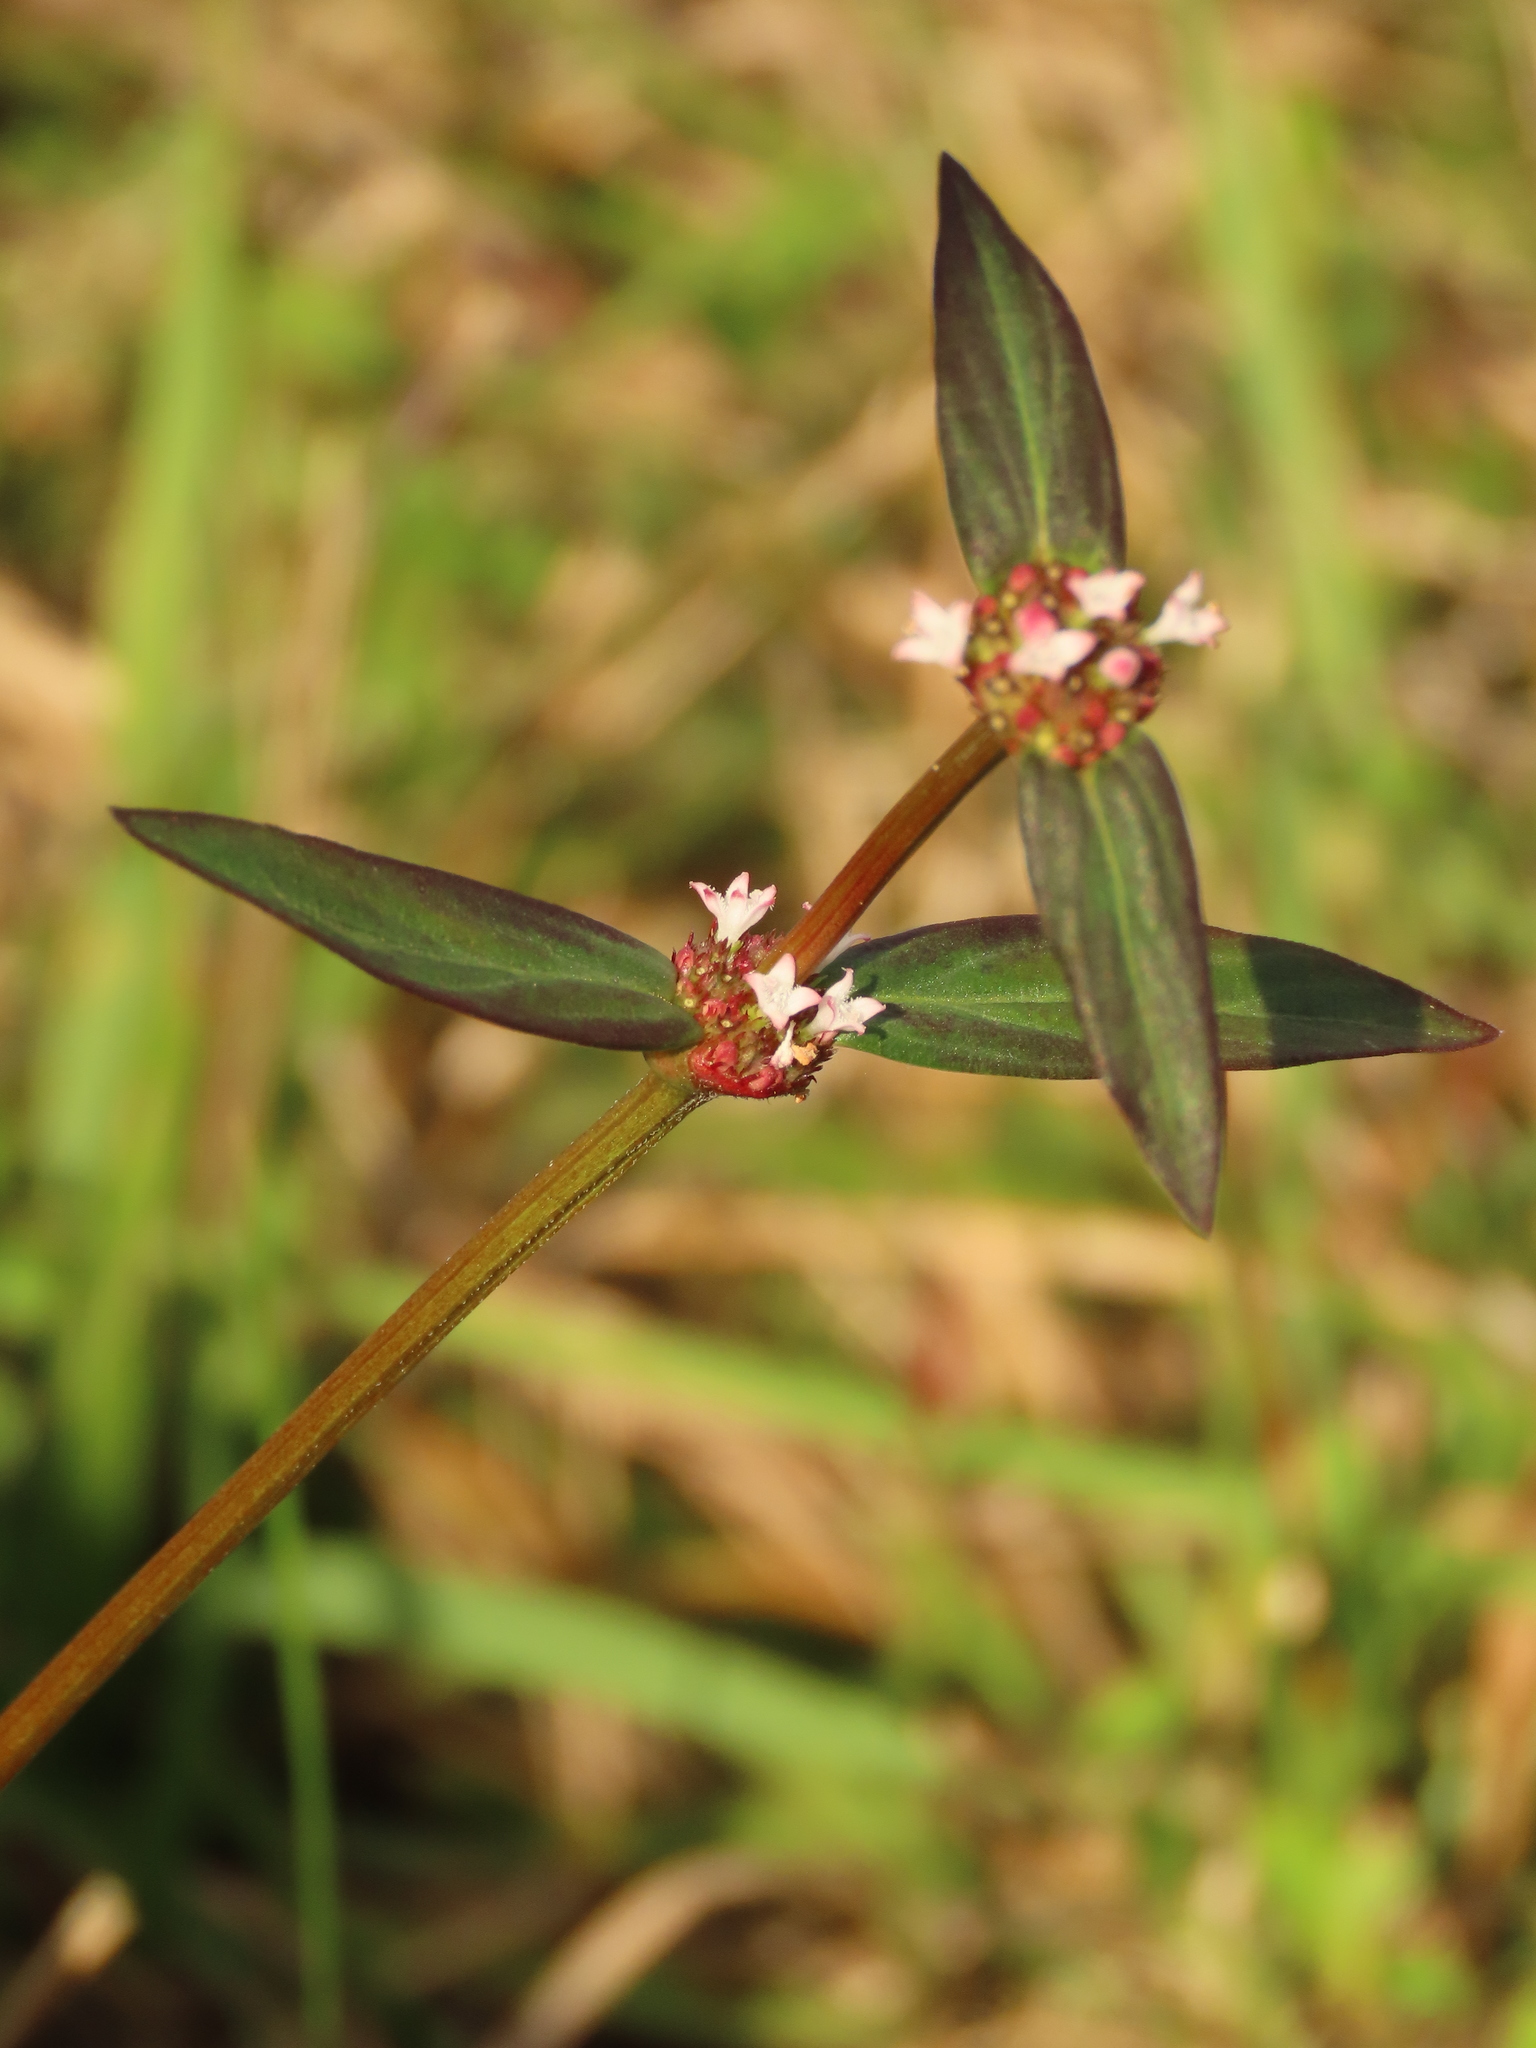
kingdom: Plantae
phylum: Tracheophyta
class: Magnoliopsida
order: Gentianales
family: Rubiaceae
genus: Spermacoce
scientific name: Spermacoce remota
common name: Woodland false buttonweed
